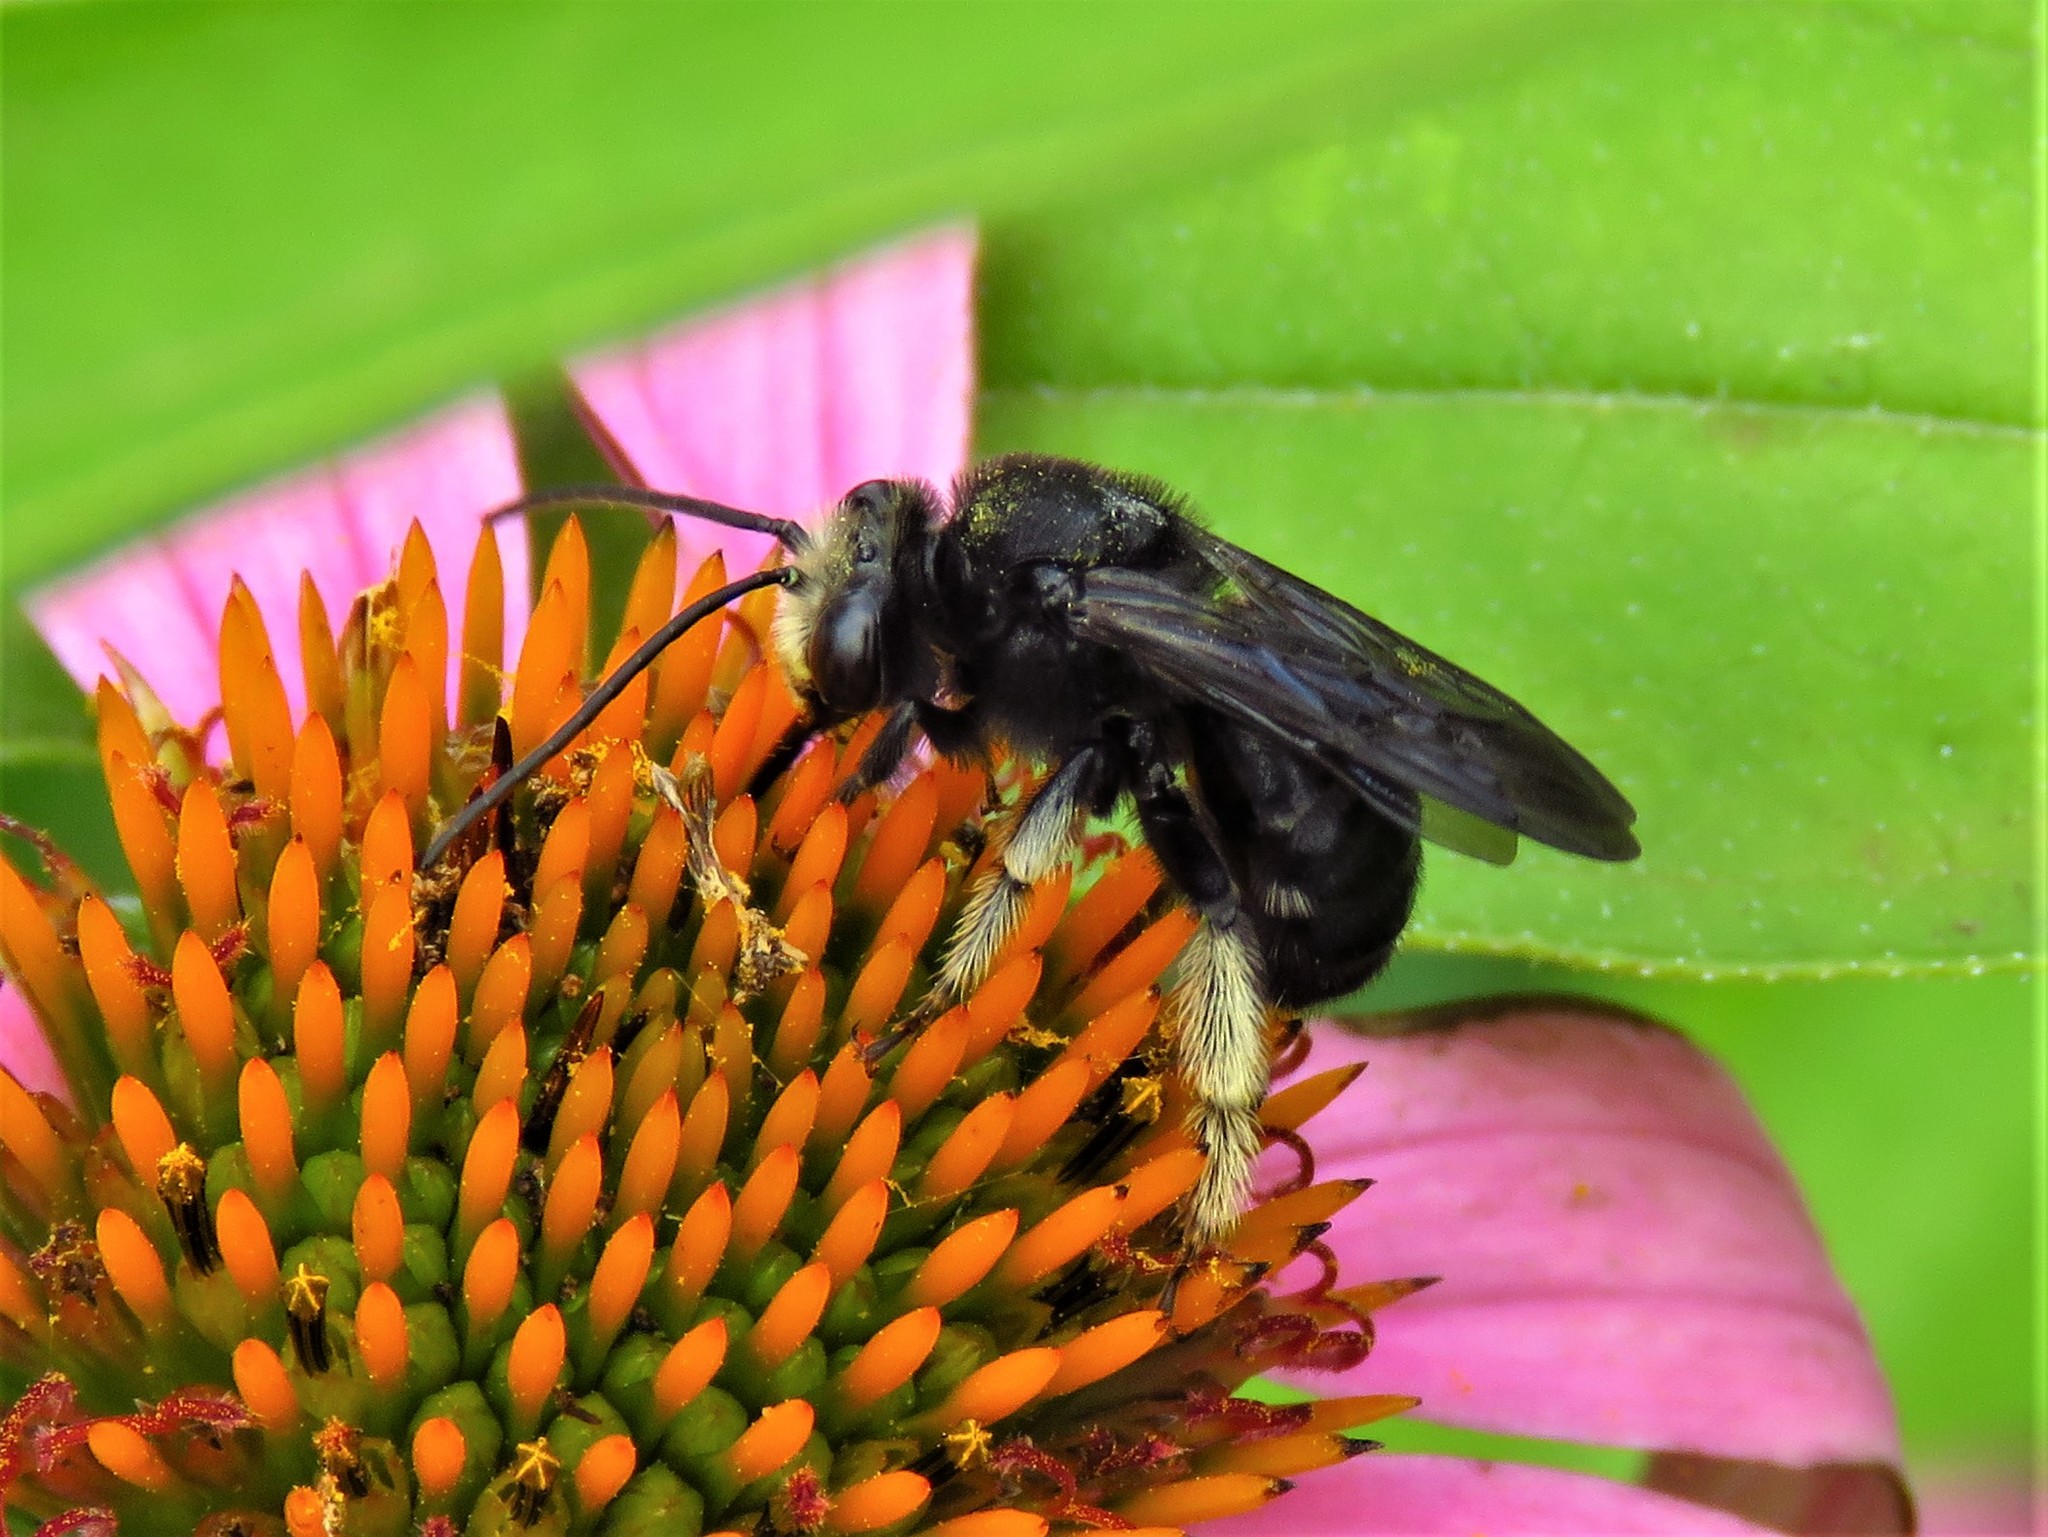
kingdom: Animalia
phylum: Arthropoda
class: Insecta
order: Hymenoptera
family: Apidae
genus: Melissodes
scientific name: Melissodes bimaculatus
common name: Two-spotted long-horned bee
